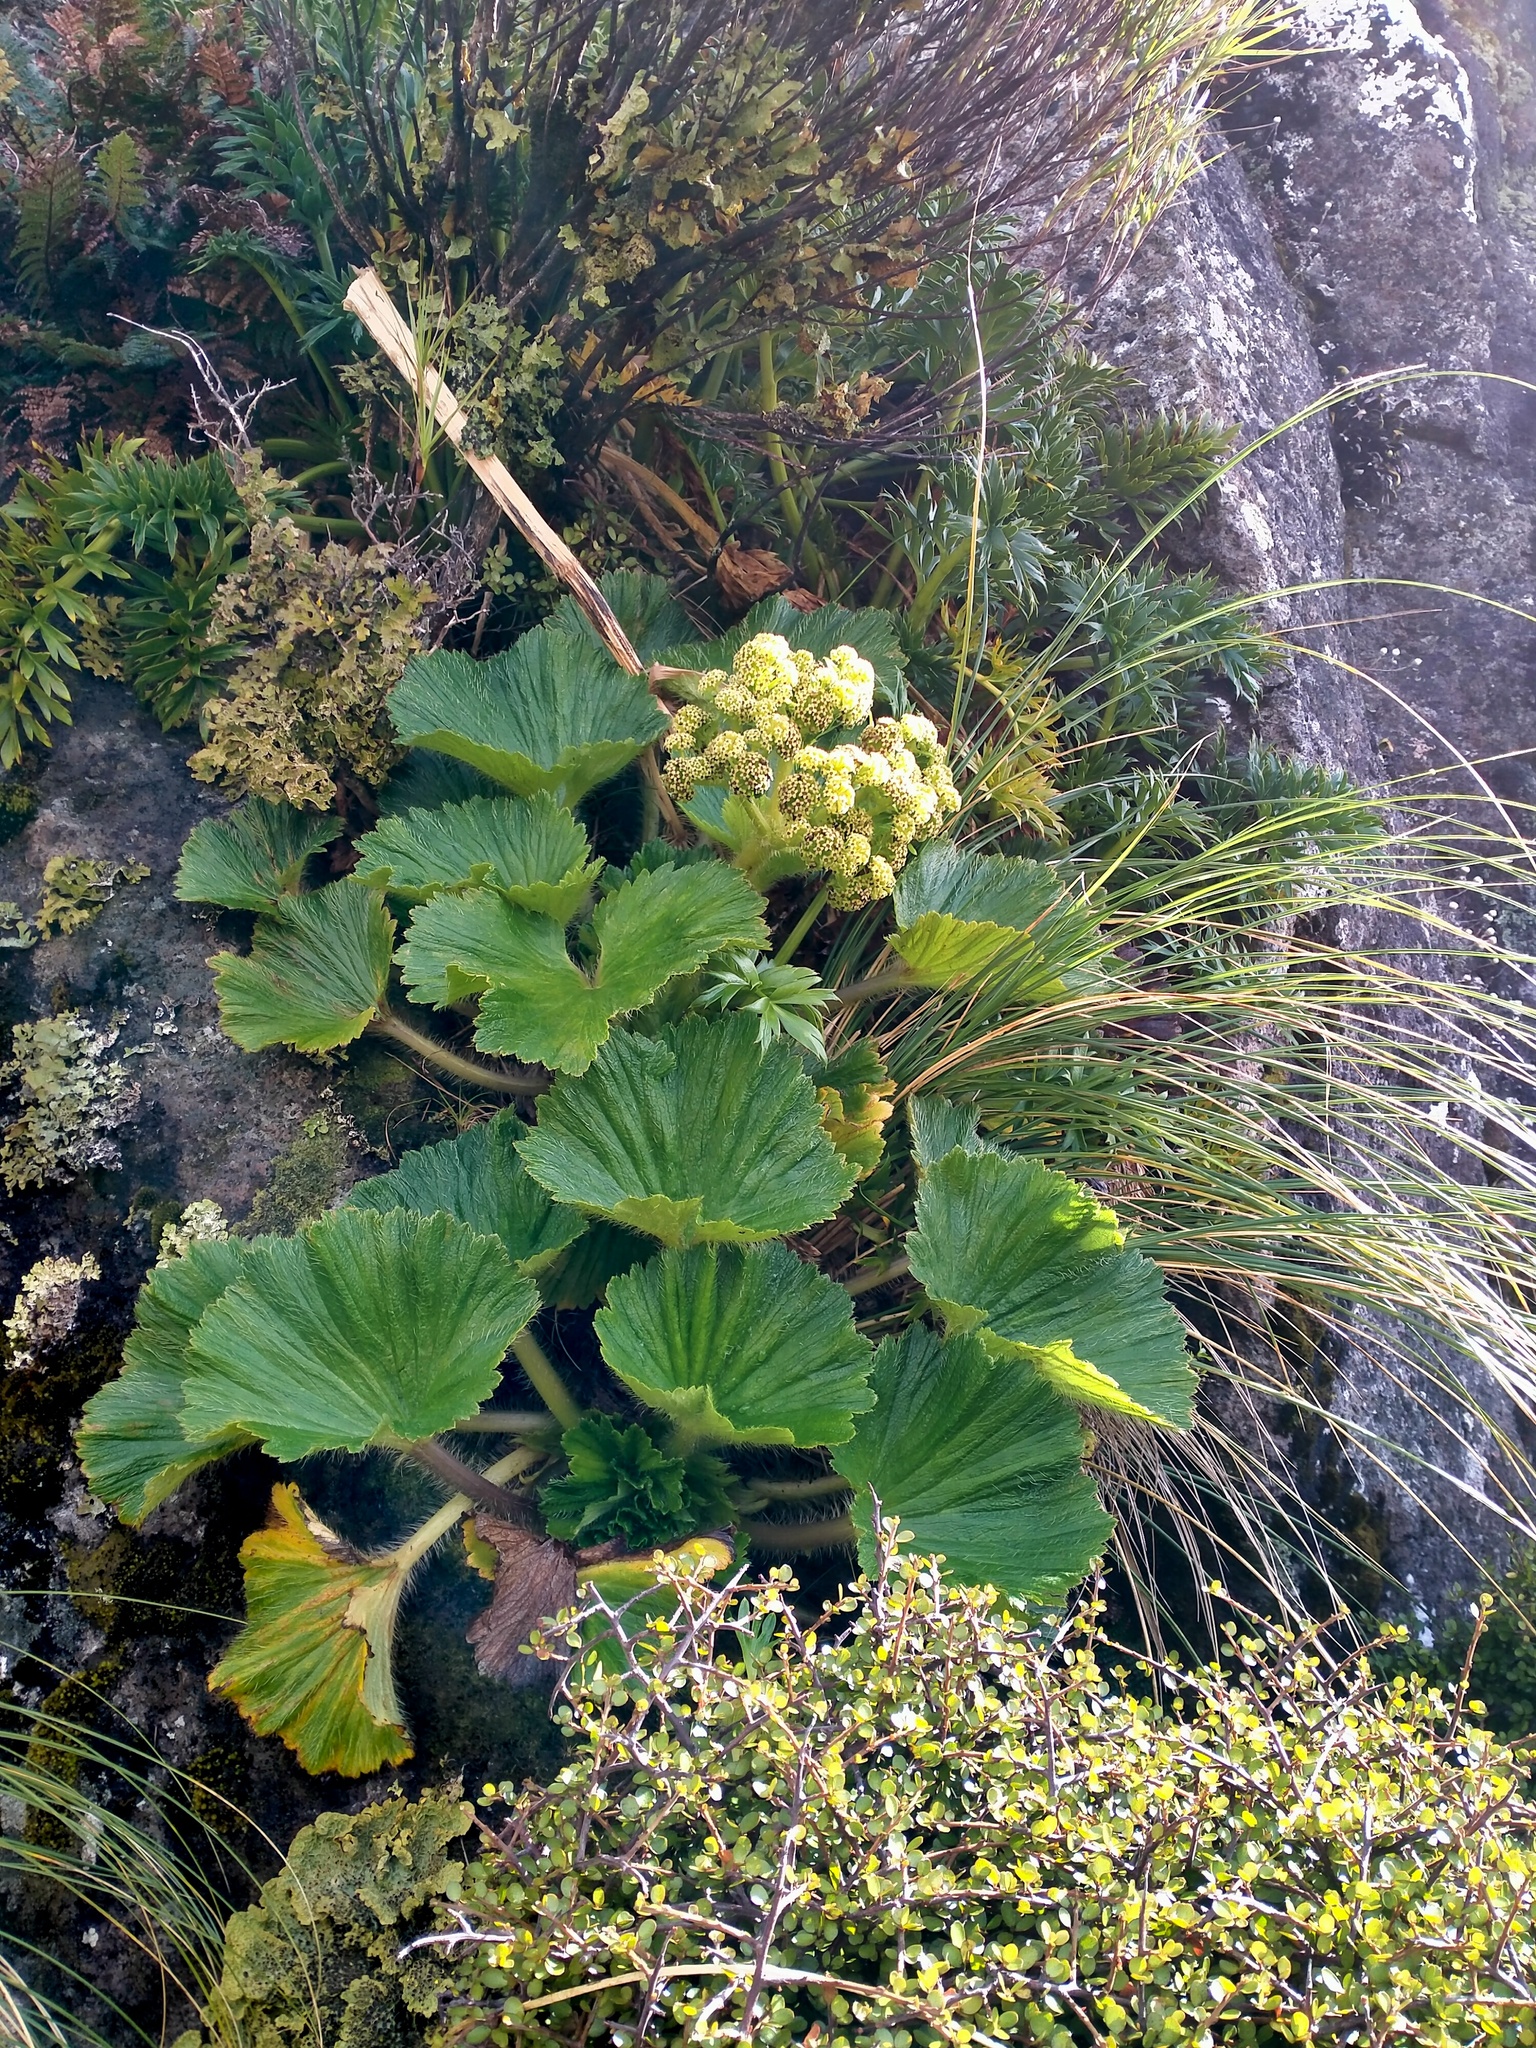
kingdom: Plantae
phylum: Tracheophyta
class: Magnoliopsida
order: Apiales
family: Apiaceae
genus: Azorella
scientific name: Azorella polaris
